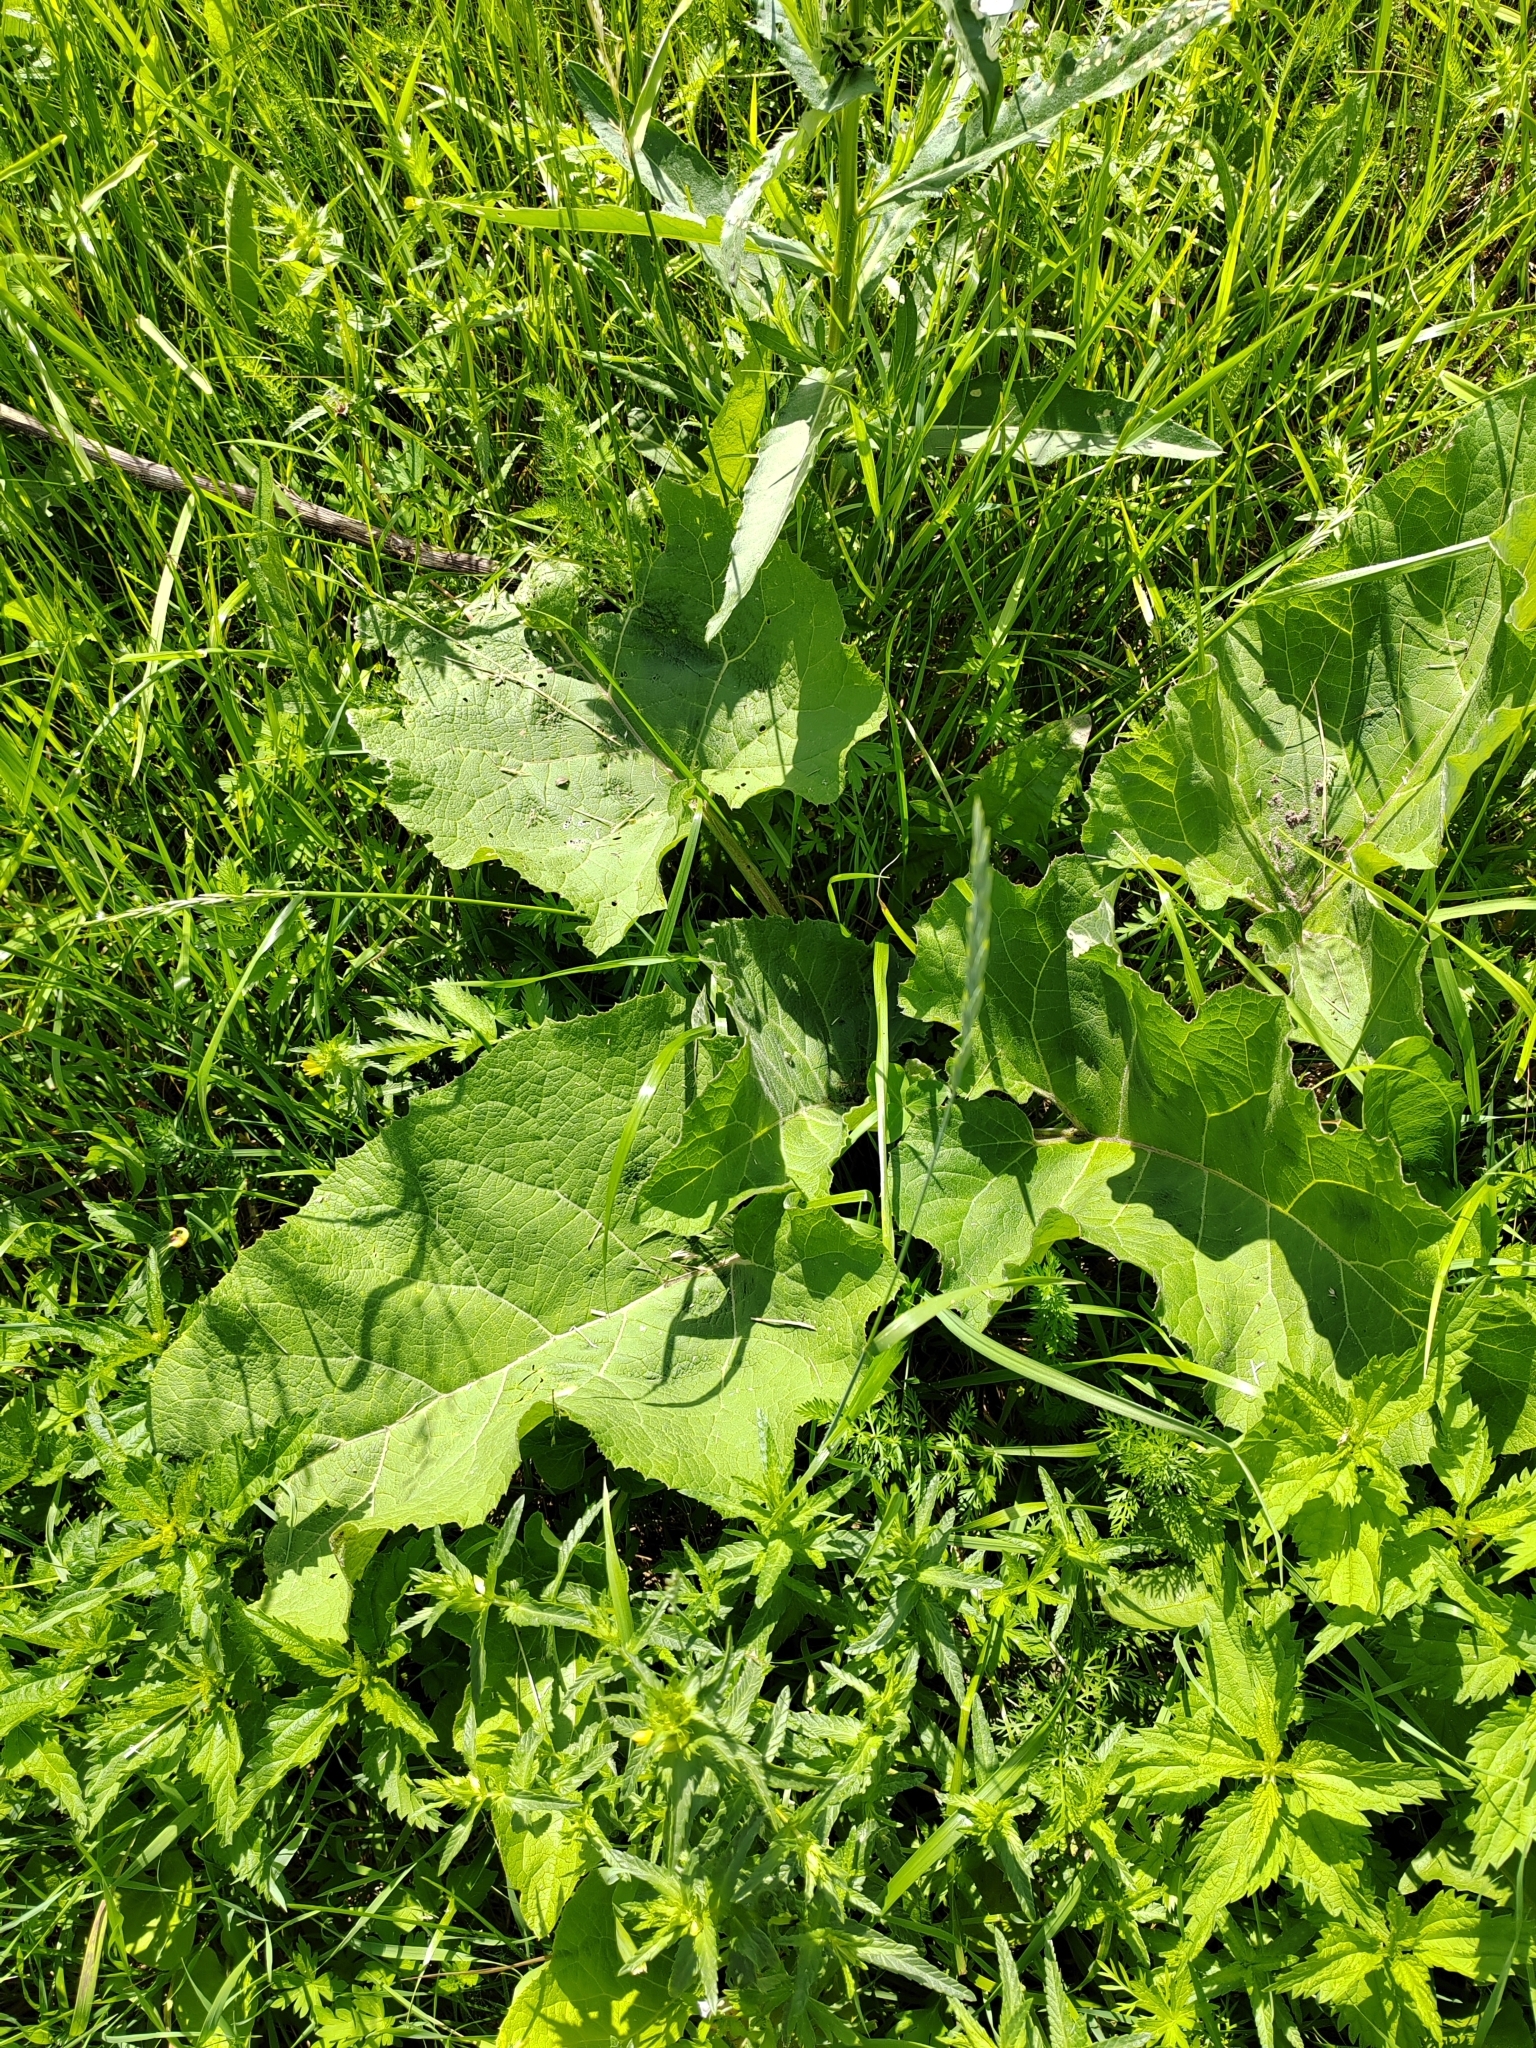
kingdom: Plantae
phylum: Tracheophyta
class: Magnoliopsida
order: Asterales
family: Asteraceae
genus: Arctium
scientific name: Arctium tomentosum
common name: Woolly burdock
